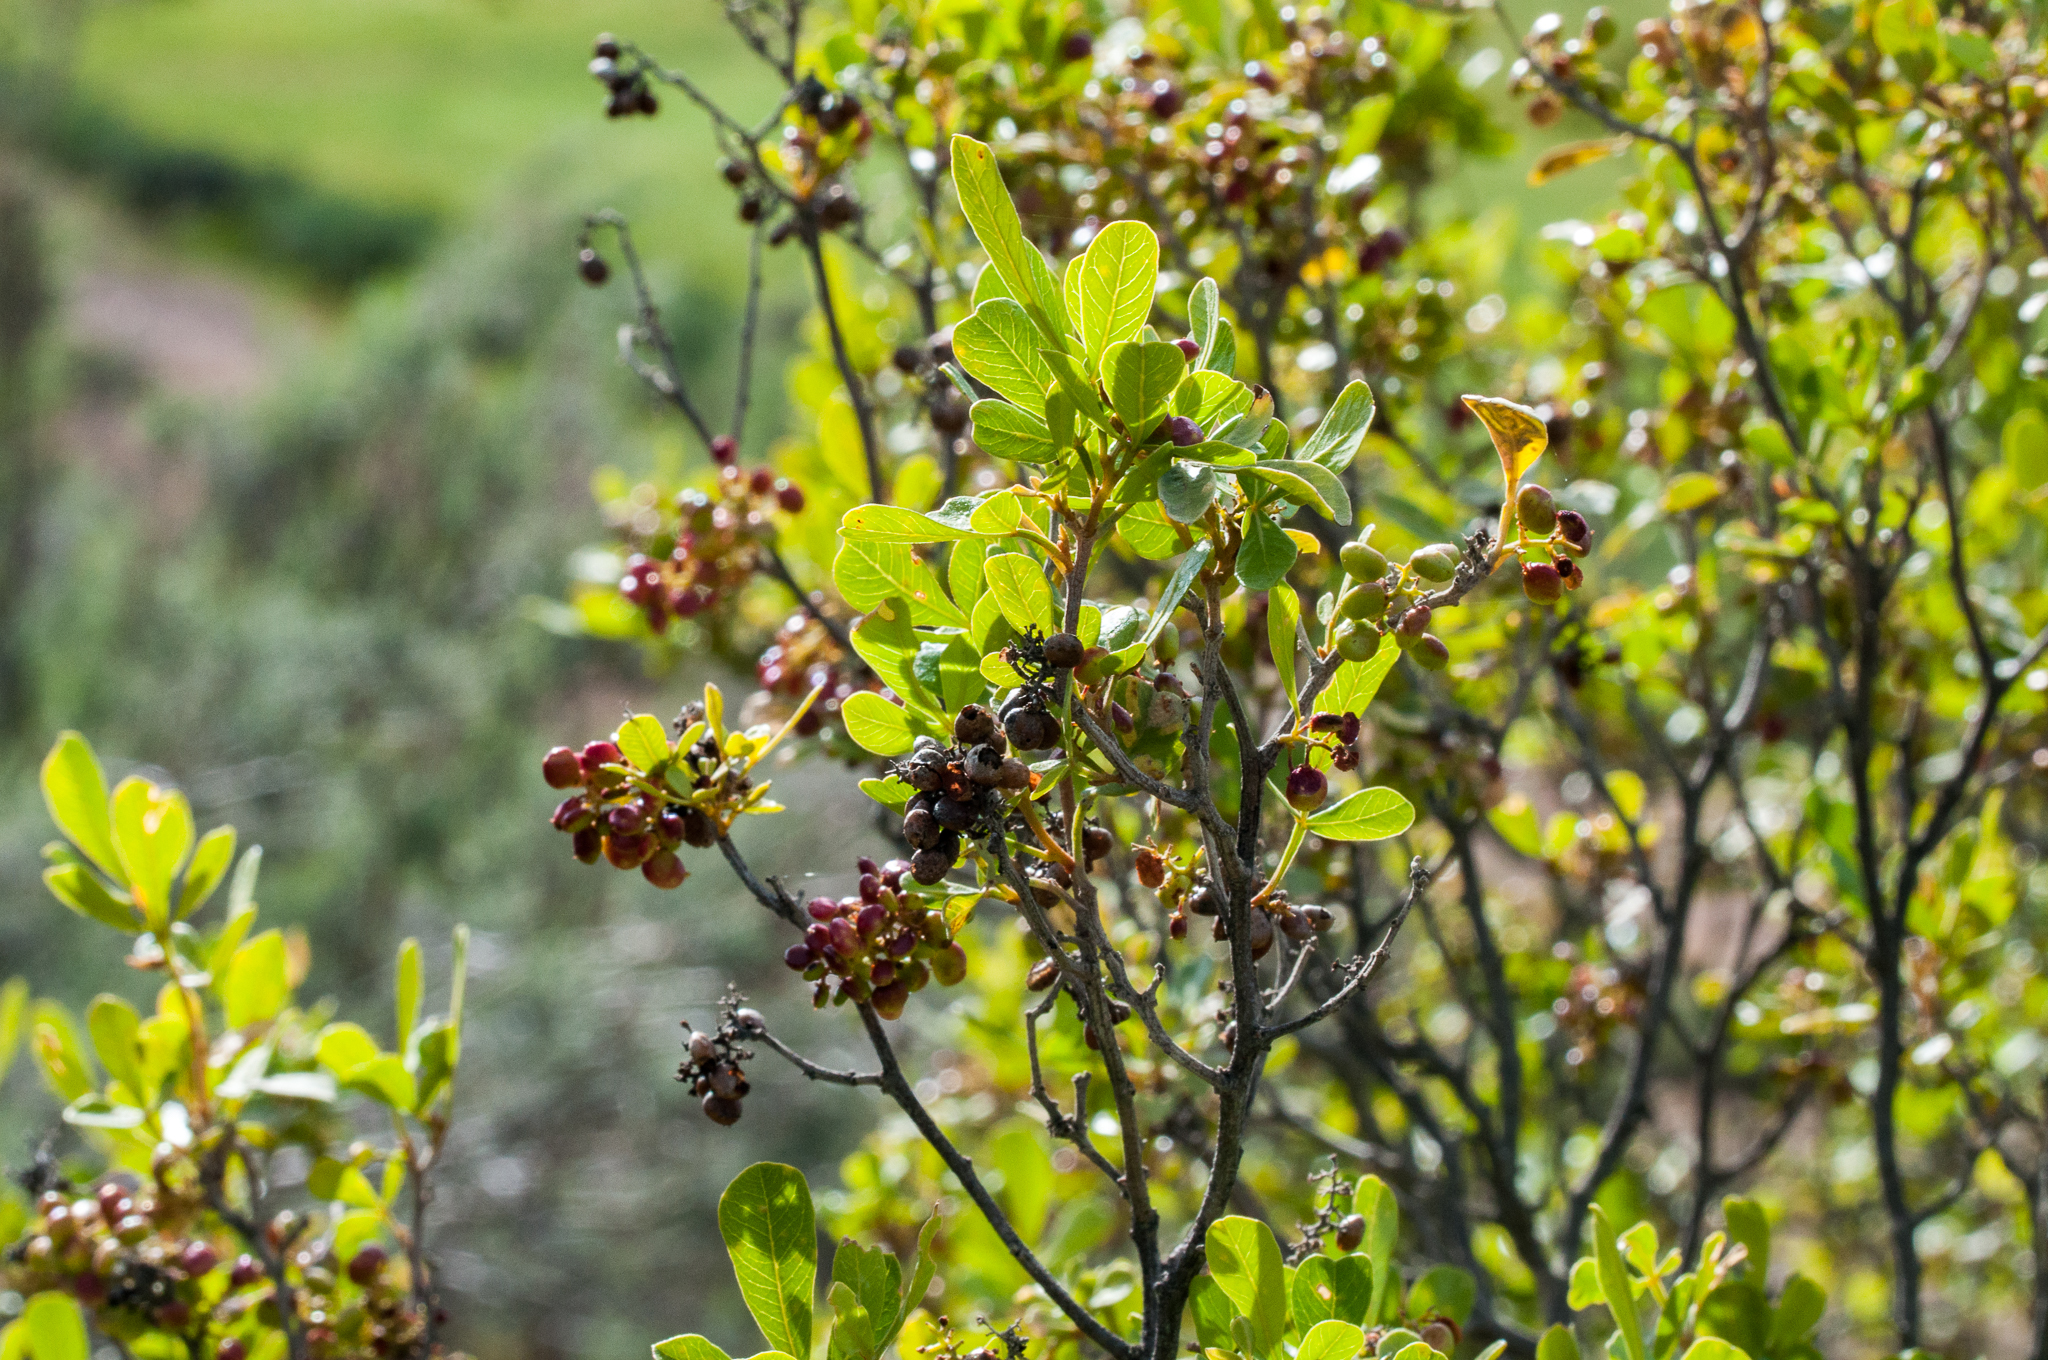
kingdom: Plantae
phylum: Tracheophyta
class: Magnoliopsida
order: Sapindales
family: Anacardiaceae
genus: Searsia
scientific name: Searsia pallens
